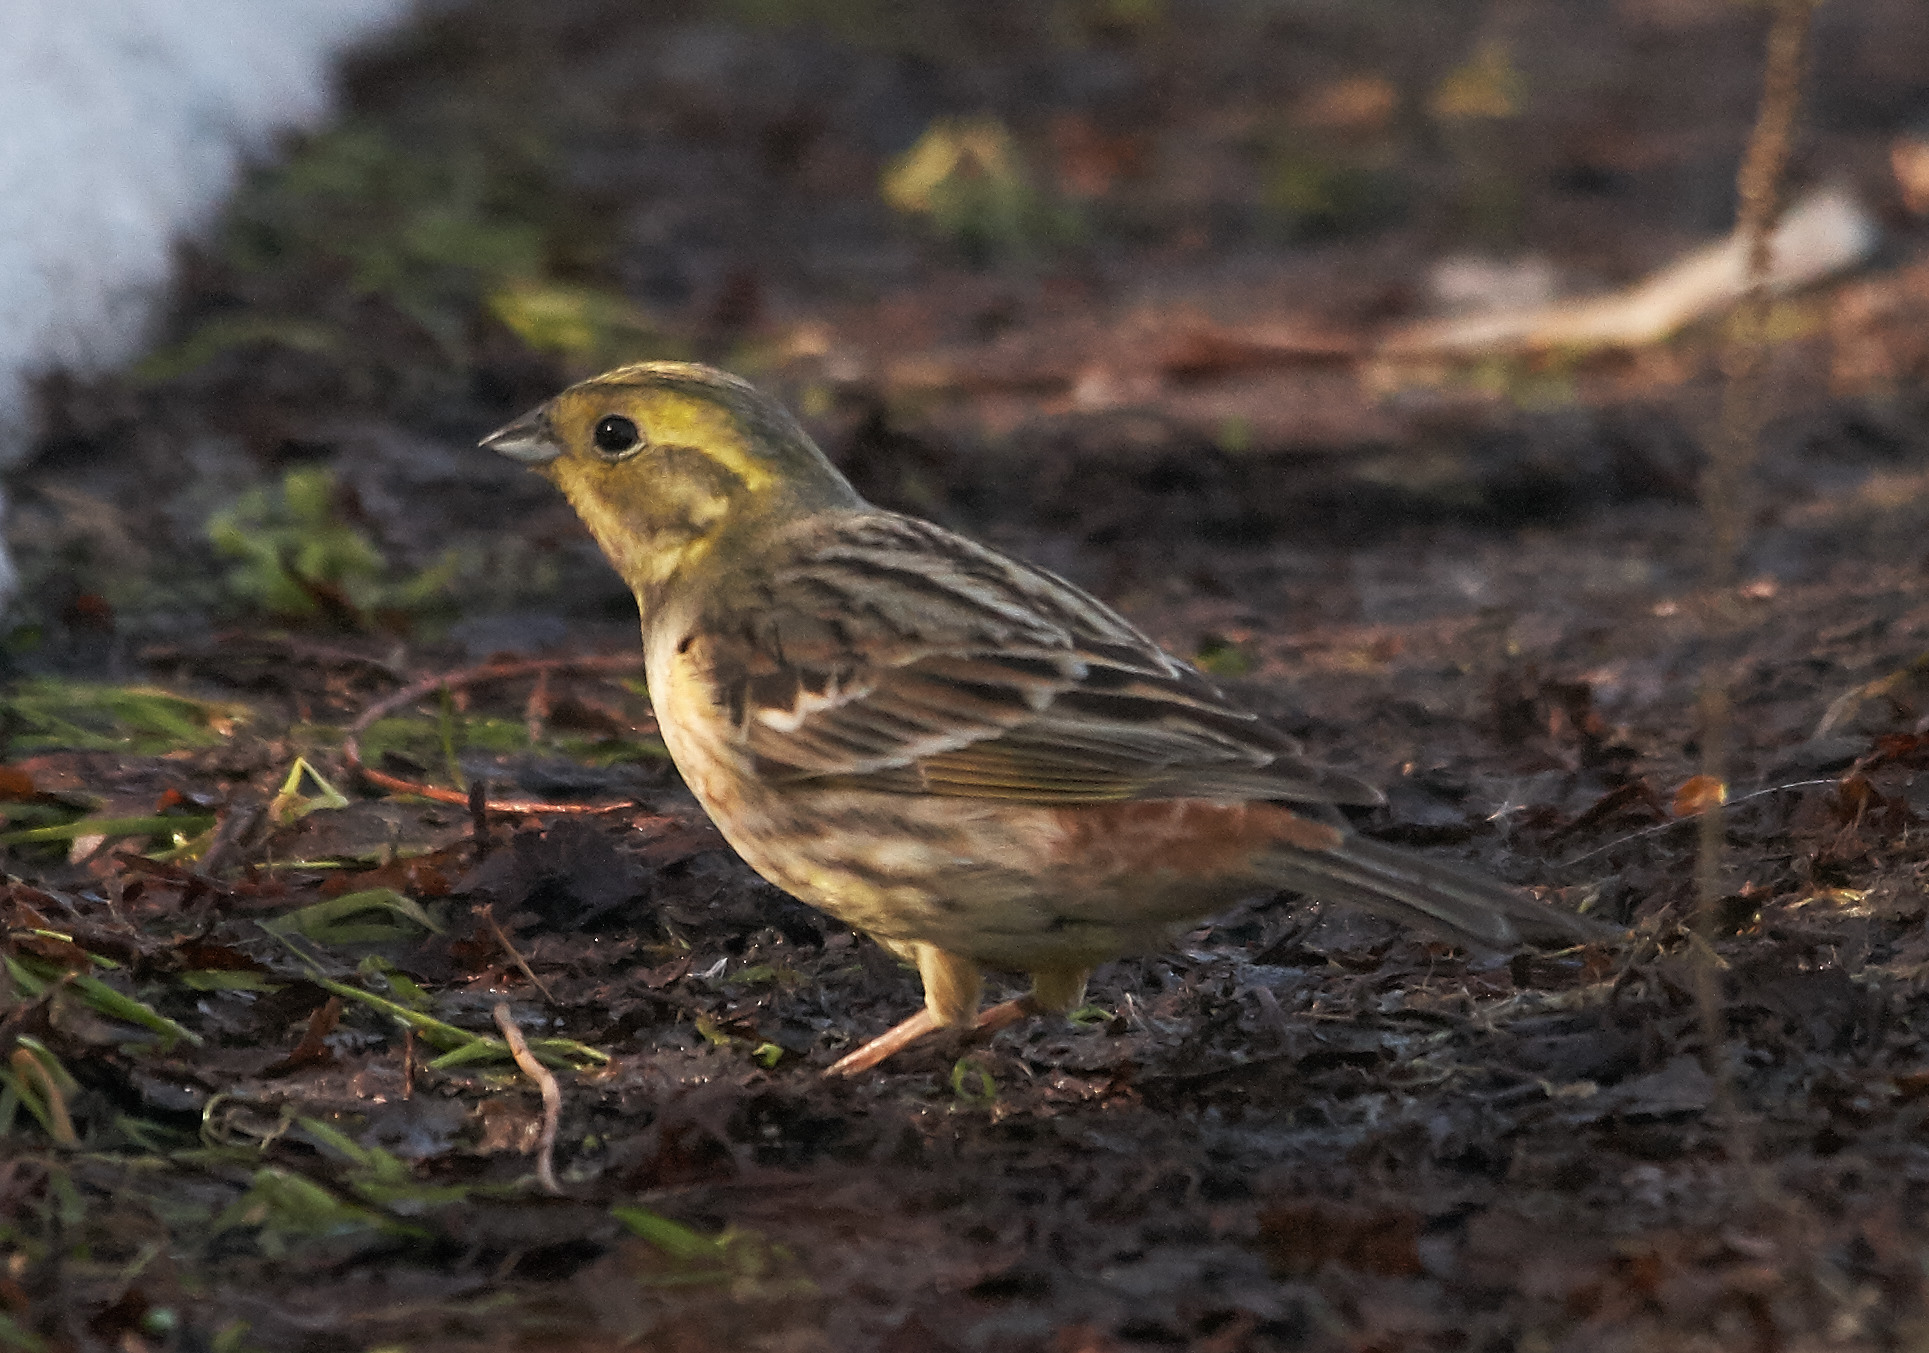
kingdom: Animalia
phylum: Chordata
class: Aves
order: Passeriformes
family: Emberizidae
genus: Emberiza
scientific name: Emberiza citrinella
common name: Yellowhammer
